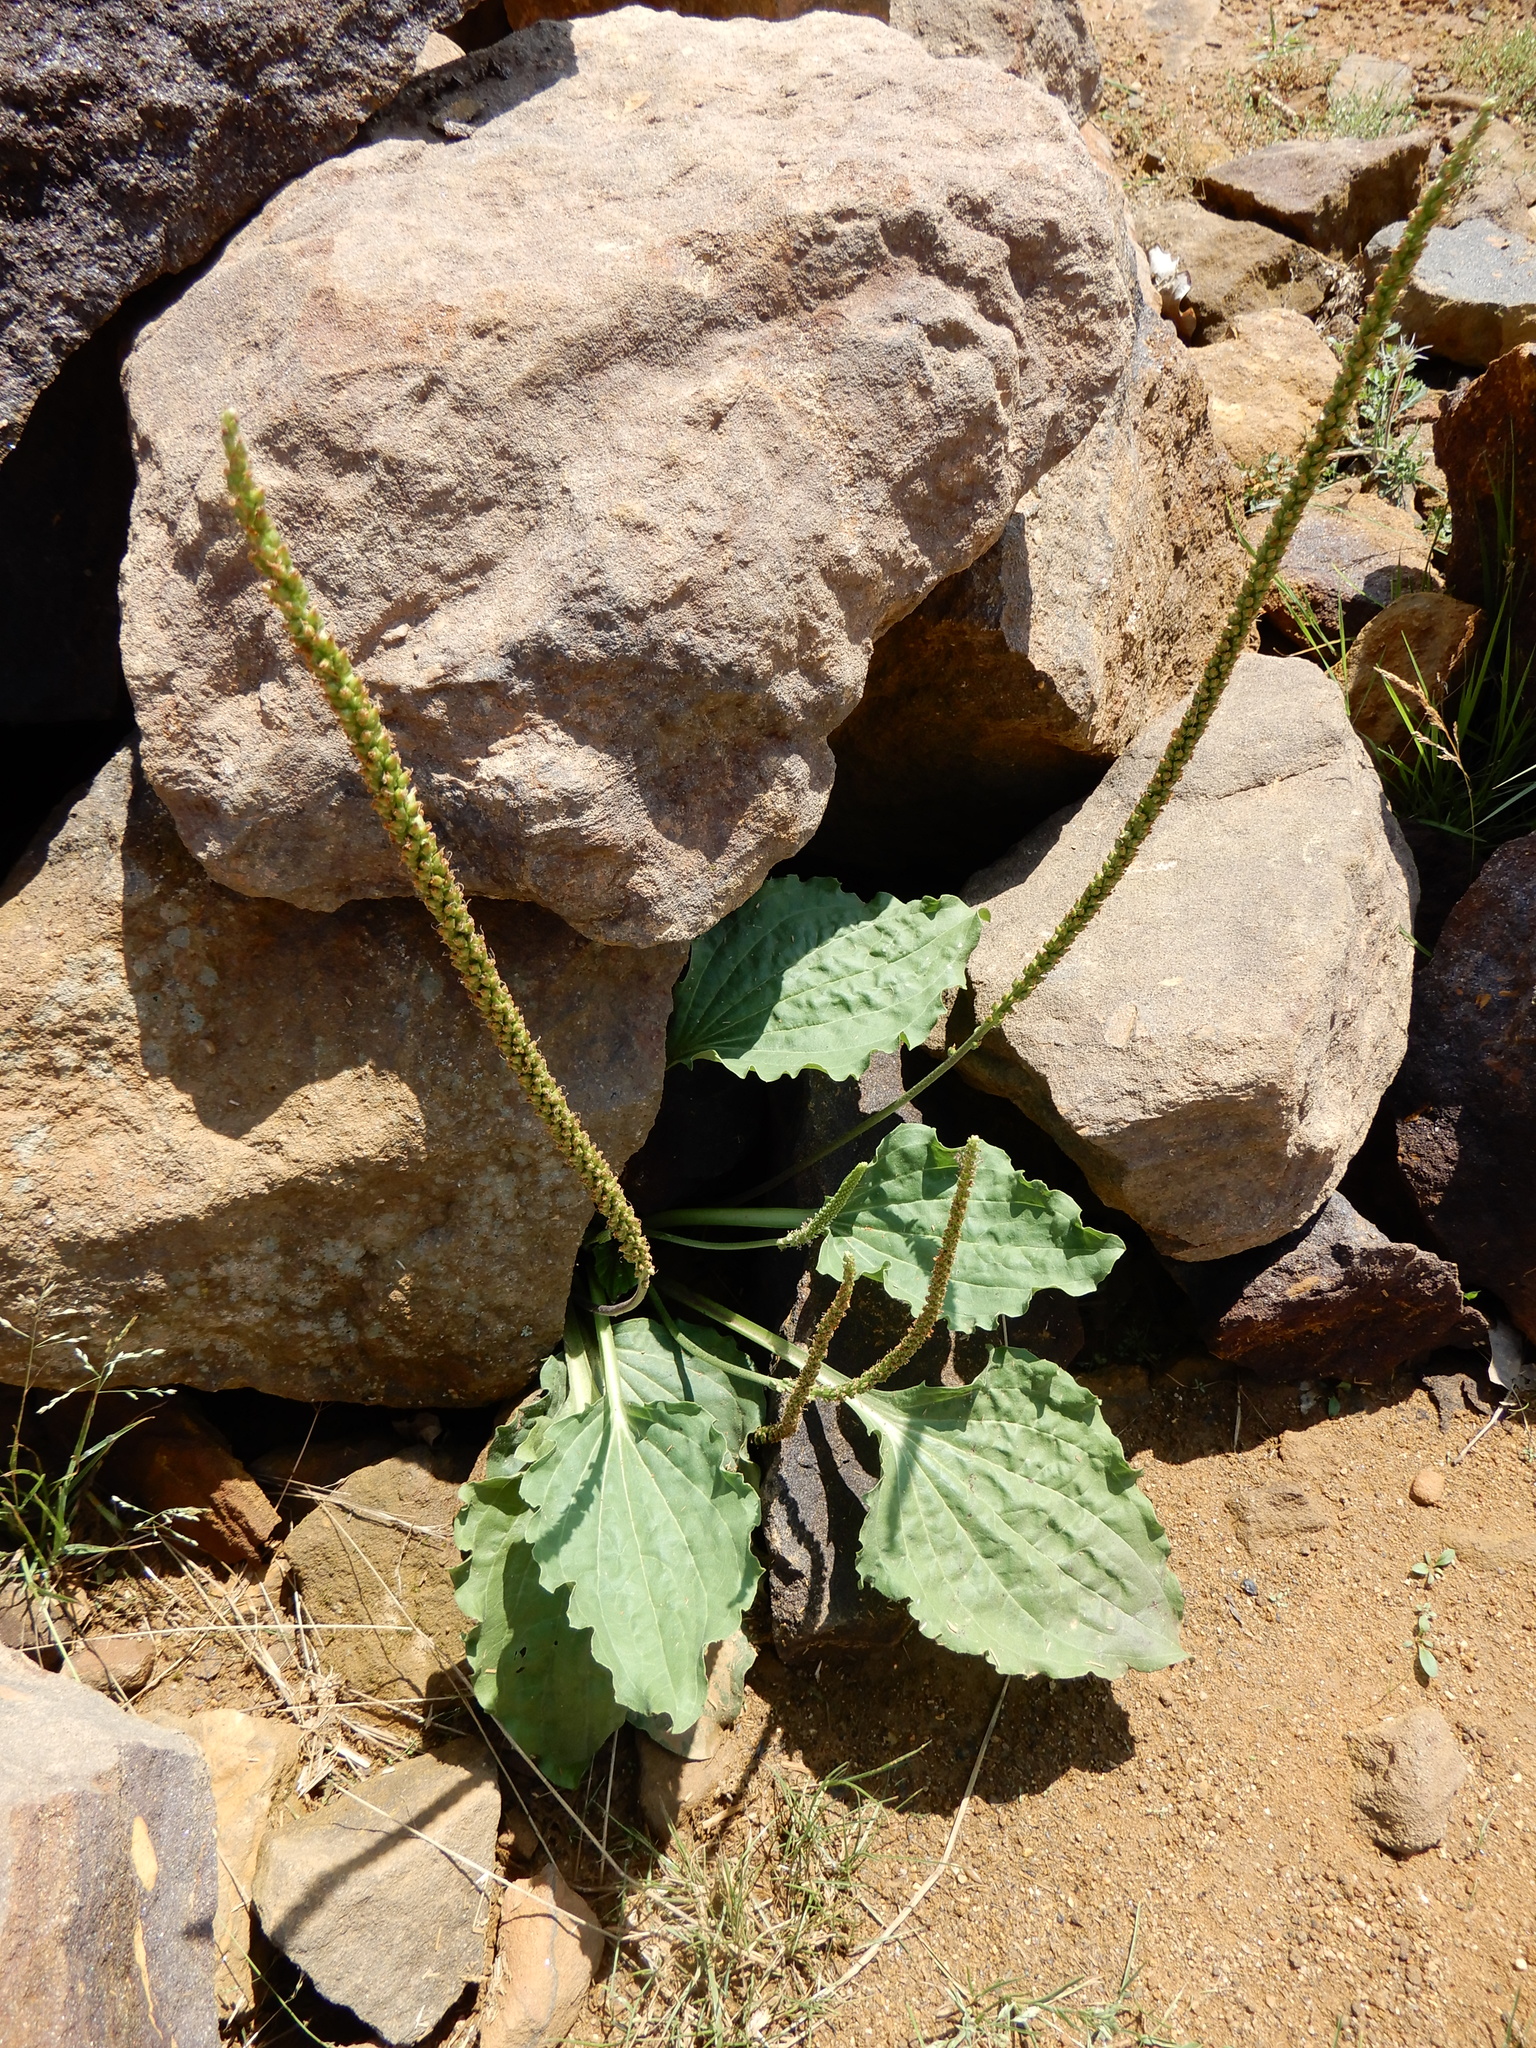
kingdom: Plantae
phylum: Tracheophyta
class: Magnoliopsida
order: Lamiales
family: Plantaginaceae
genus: Plantago
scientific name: Plantago major
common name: Common plantain
